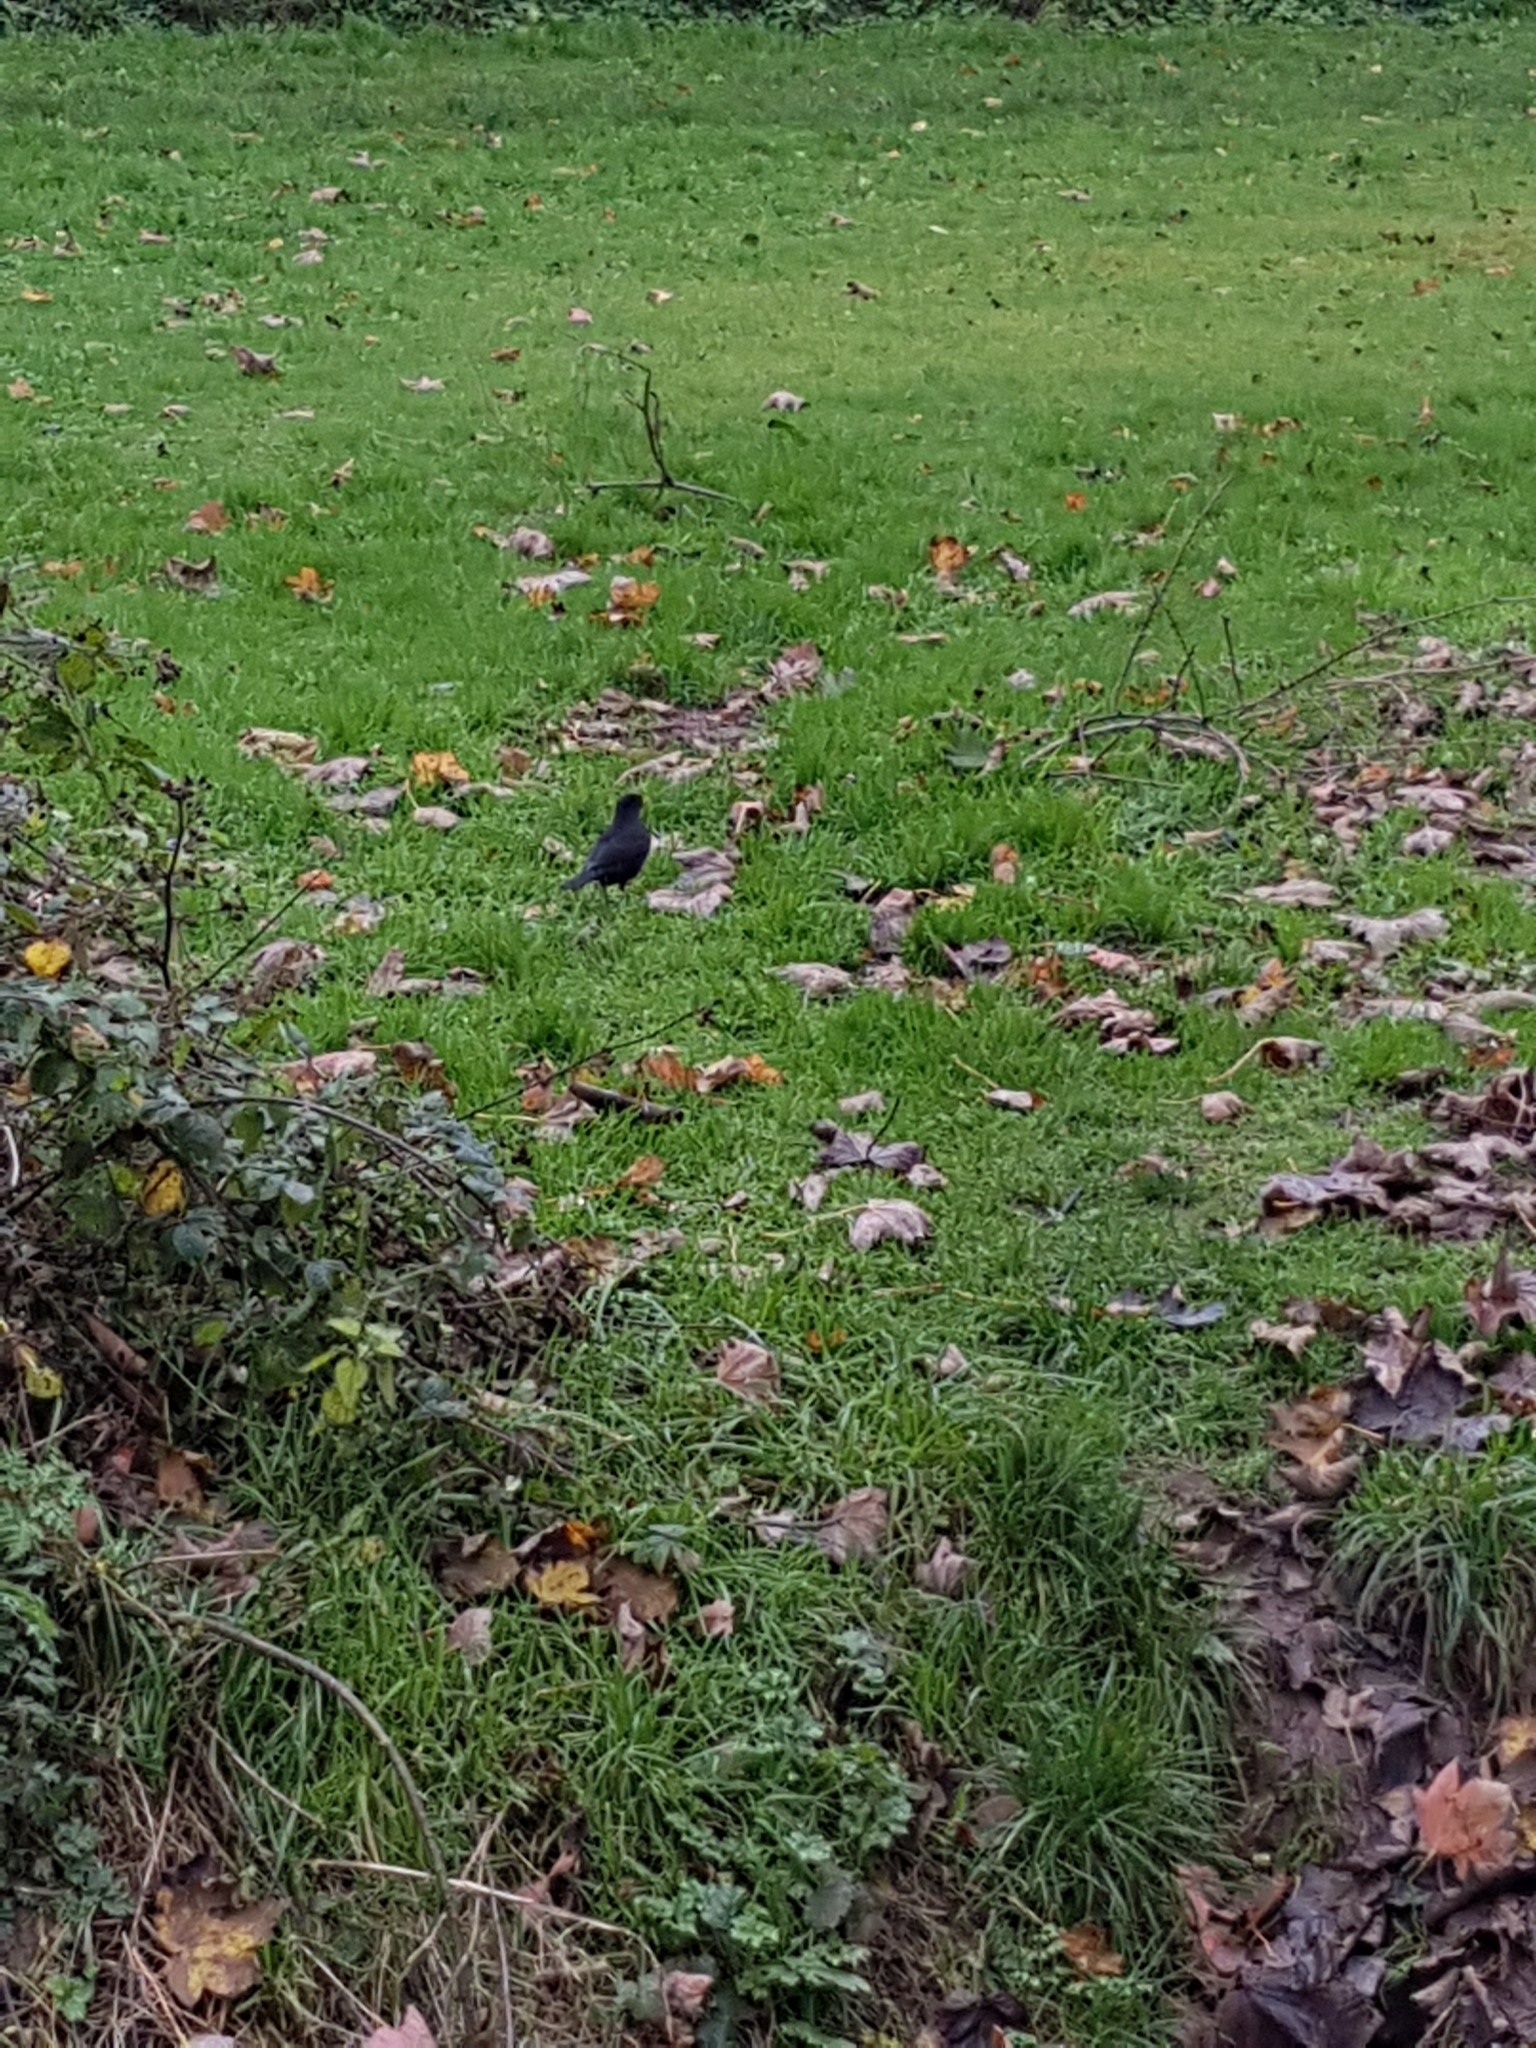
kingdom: Animalia
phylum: Chordata
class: Aves
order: Passeriformes
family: Turdidae
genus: Turdus
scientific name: Turdus merula
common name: Common blackbird
